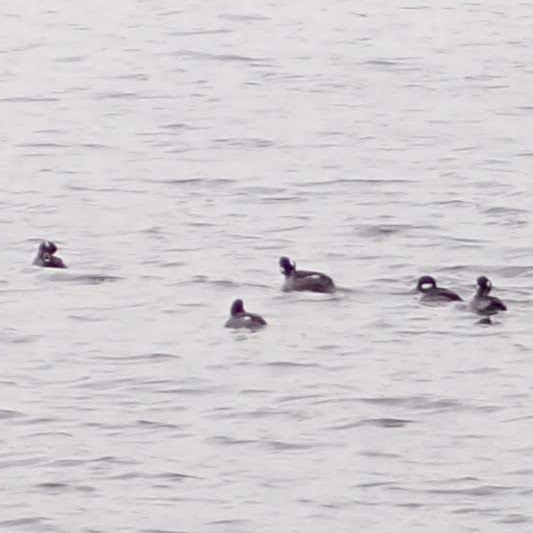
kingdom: Animalia
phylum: Chordata
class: Aves
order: Anseriformes
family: Anatidae
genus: Bucephala
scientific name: Bucephala albeola
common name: Bufflehead
